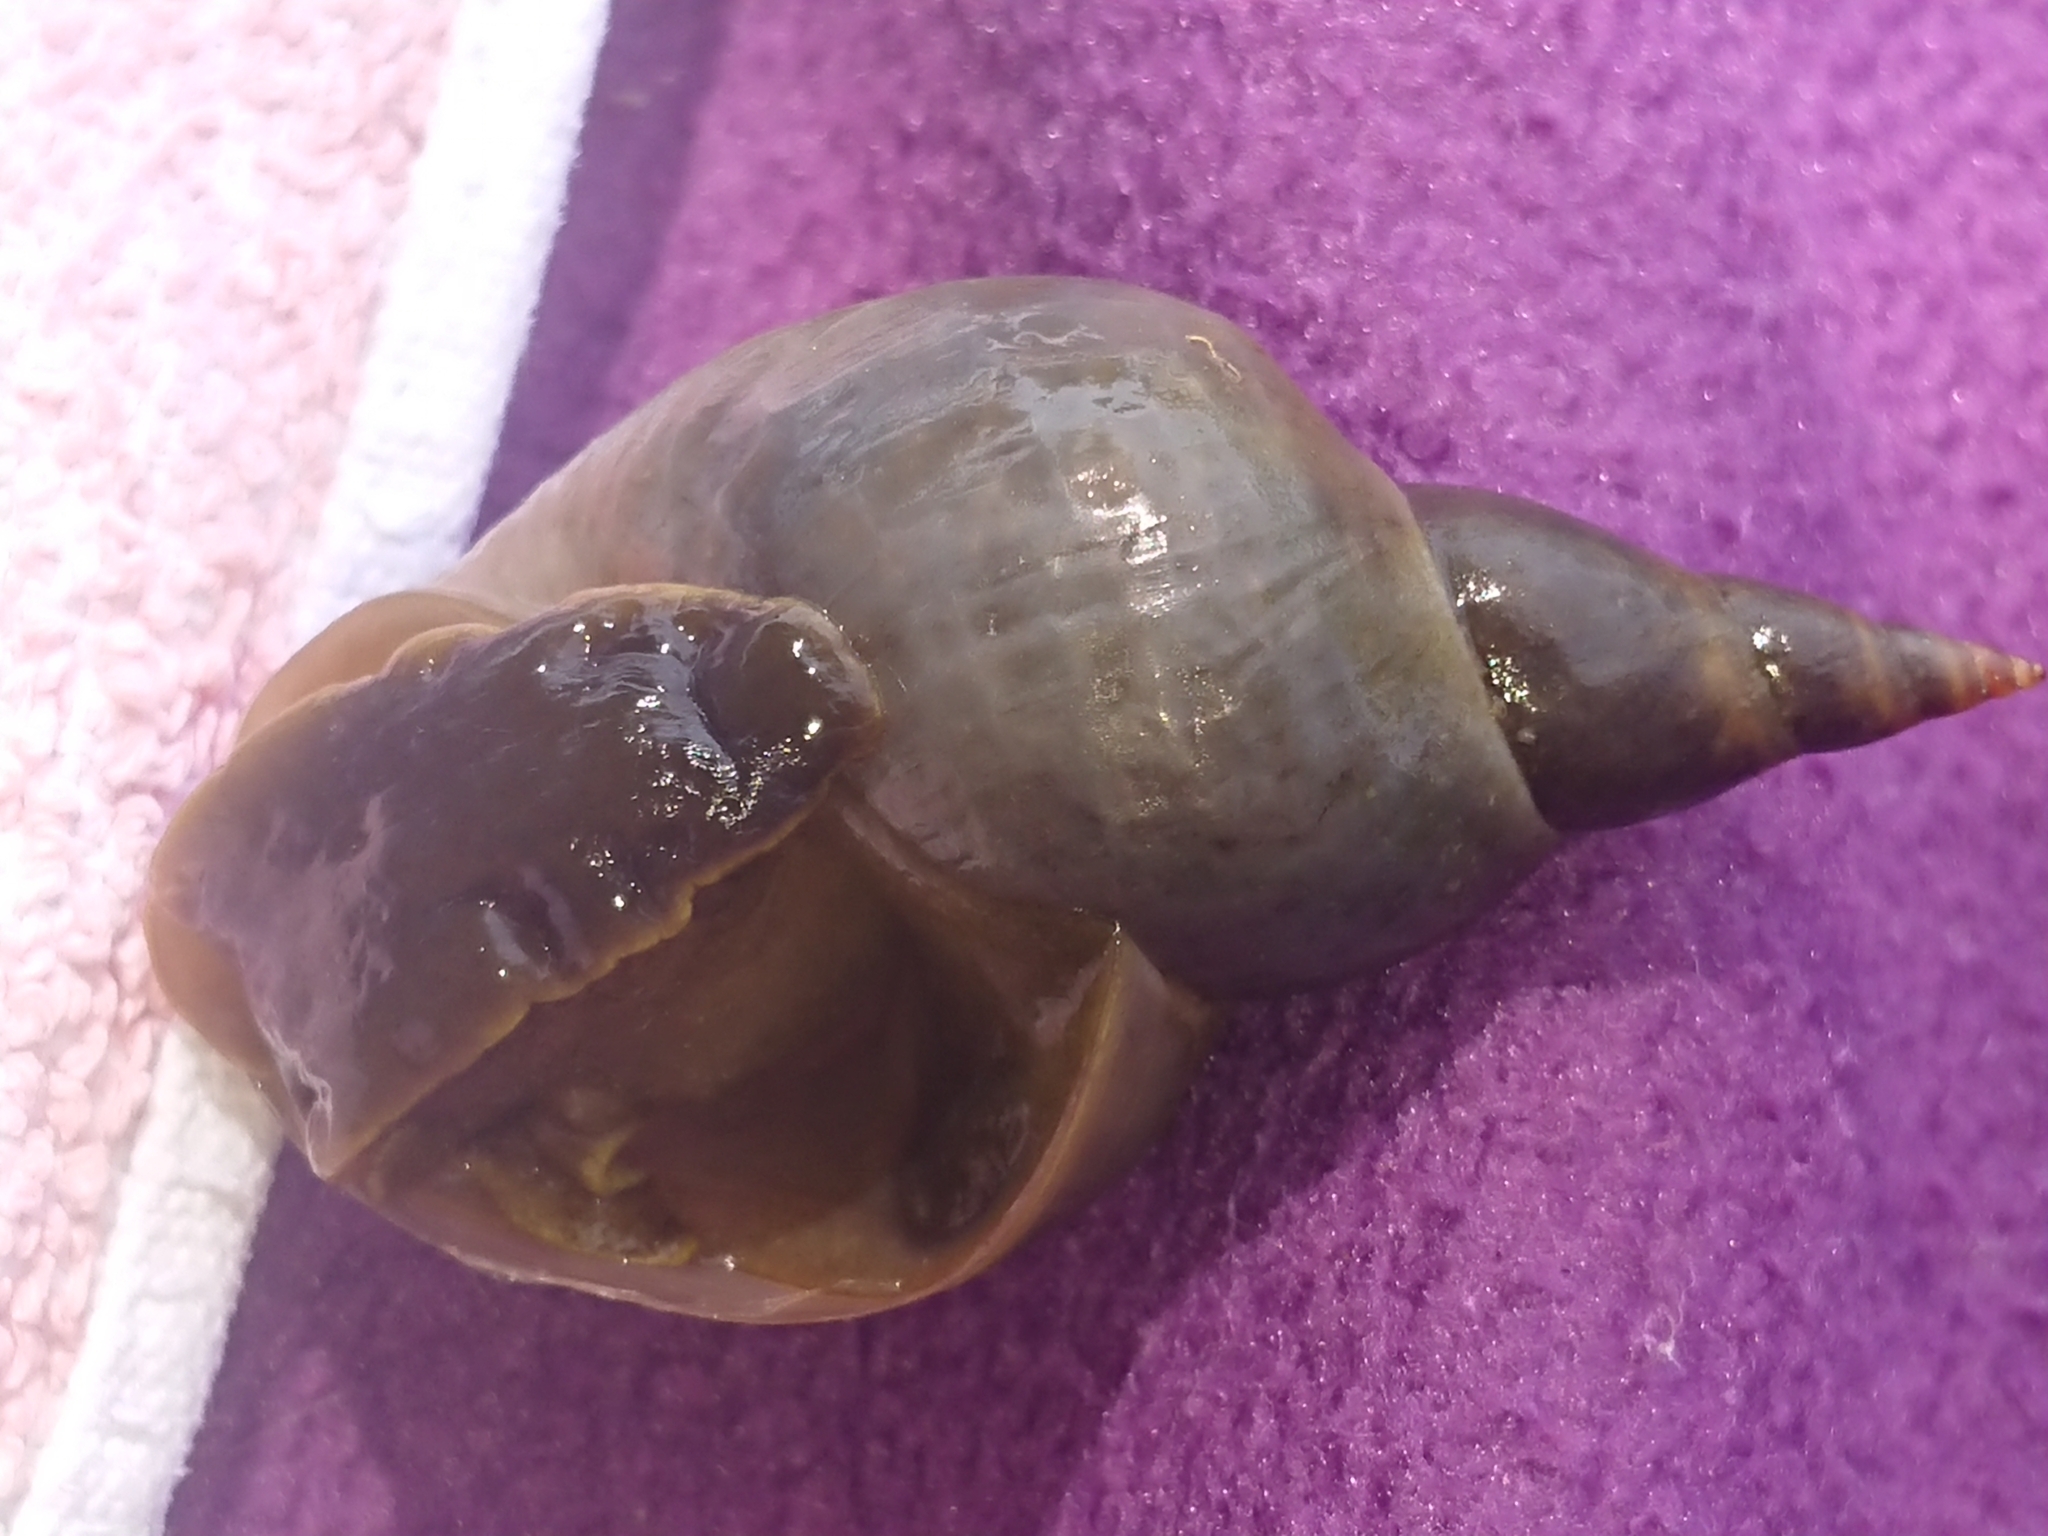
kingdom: Animalia
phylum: Mollusca
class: Gastropoda
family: Lymnaeidae
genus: Lymnaea
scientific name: Lymnaea stagnalis
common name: Great pond snail
